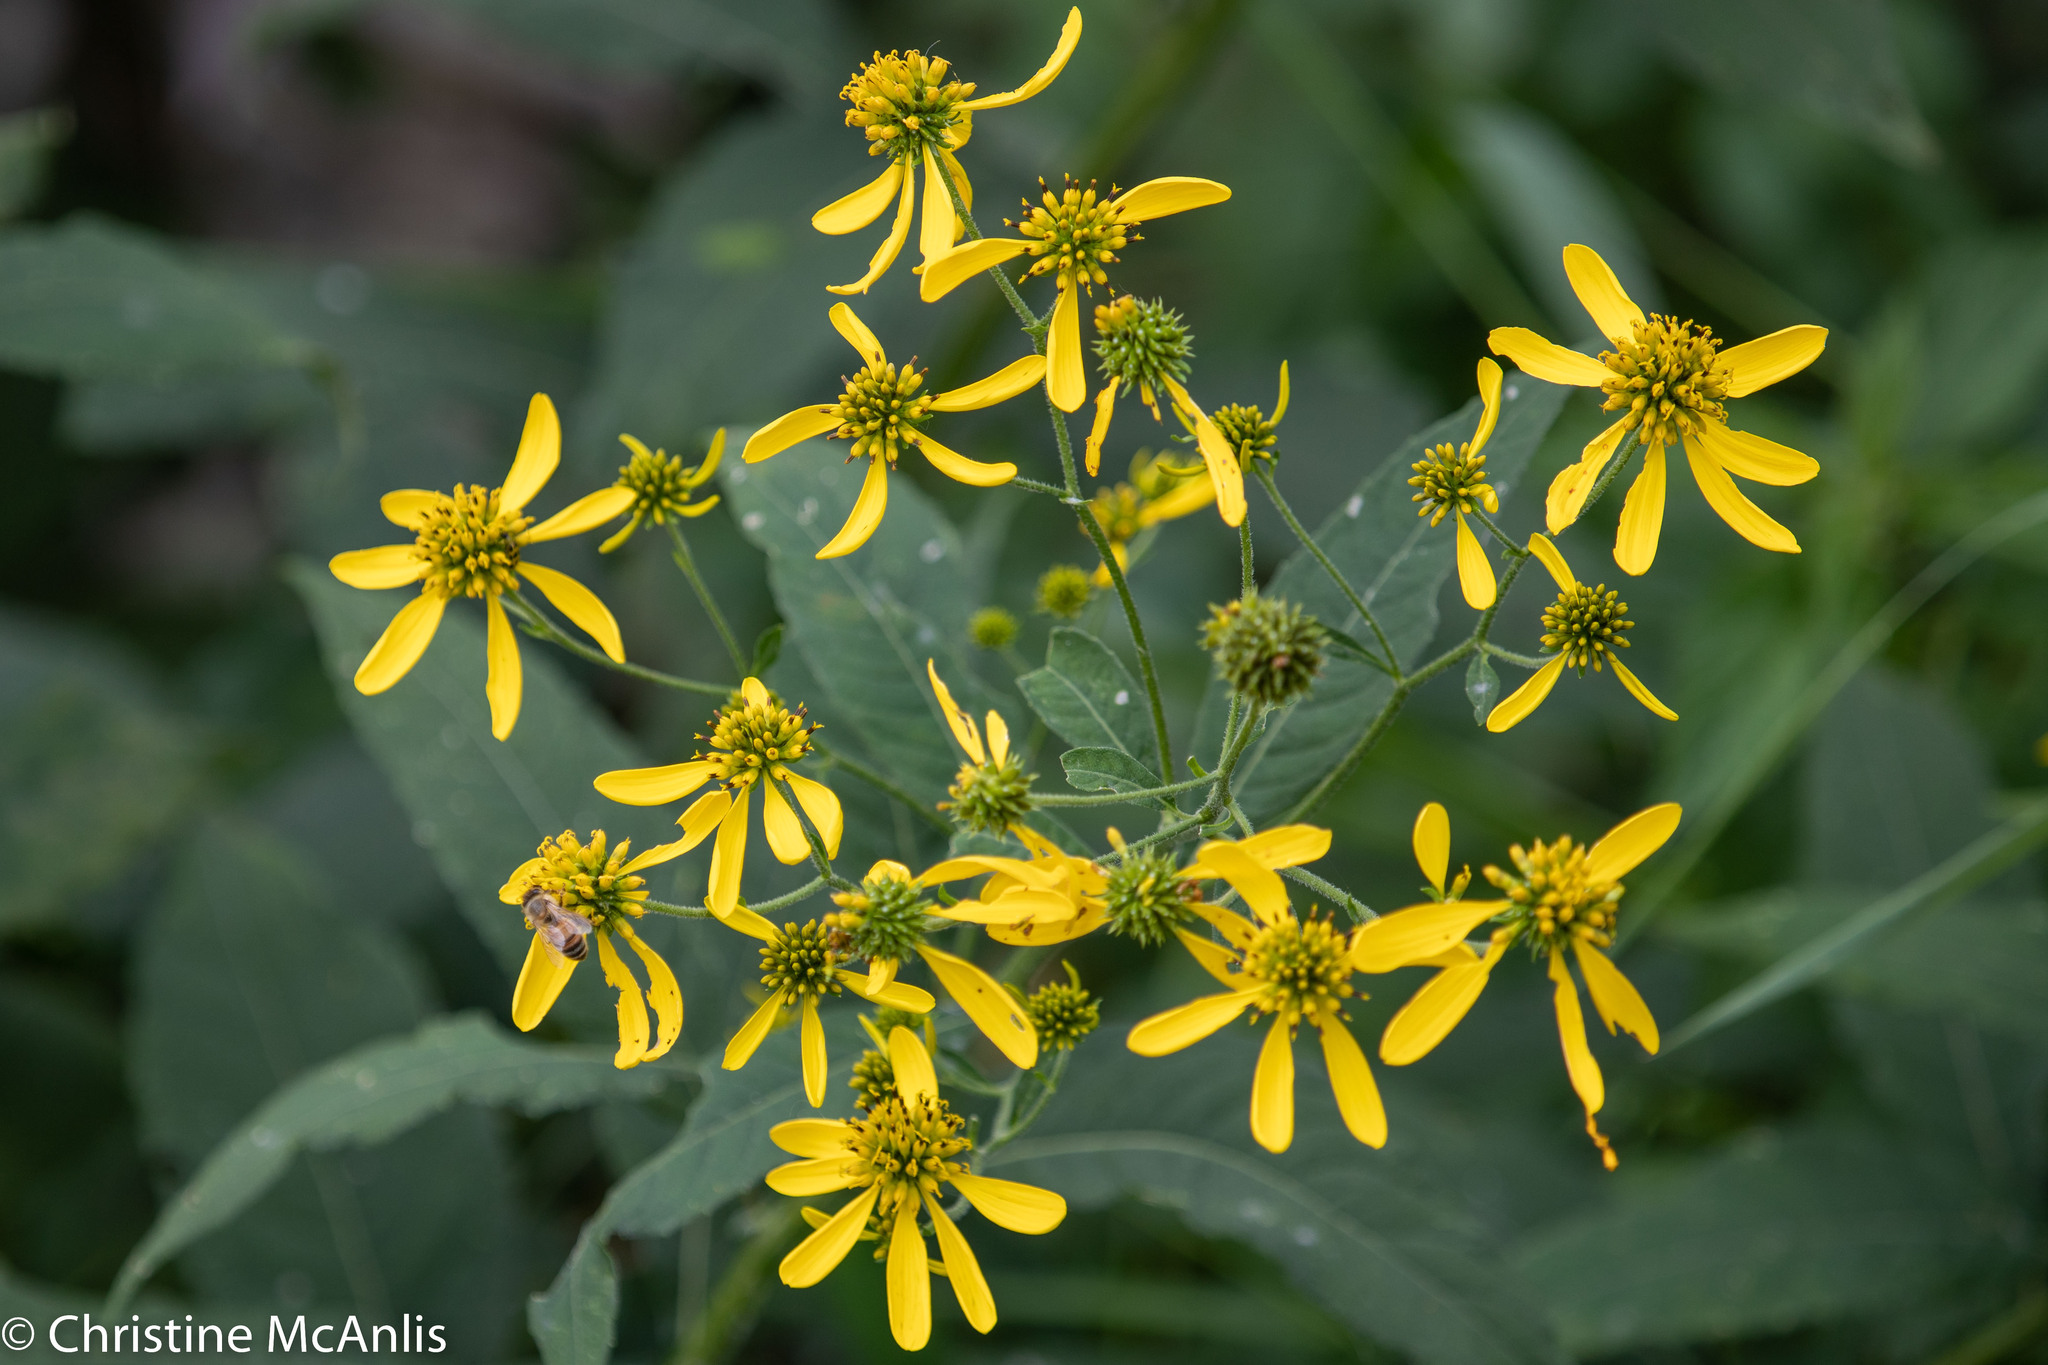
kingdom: Plantae
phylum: Tracheophyta
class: Magnoliopsida
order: Asterales
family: Asteraceae
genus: Verbesina
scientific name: Verbesina alternifolia
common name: Wingstem
